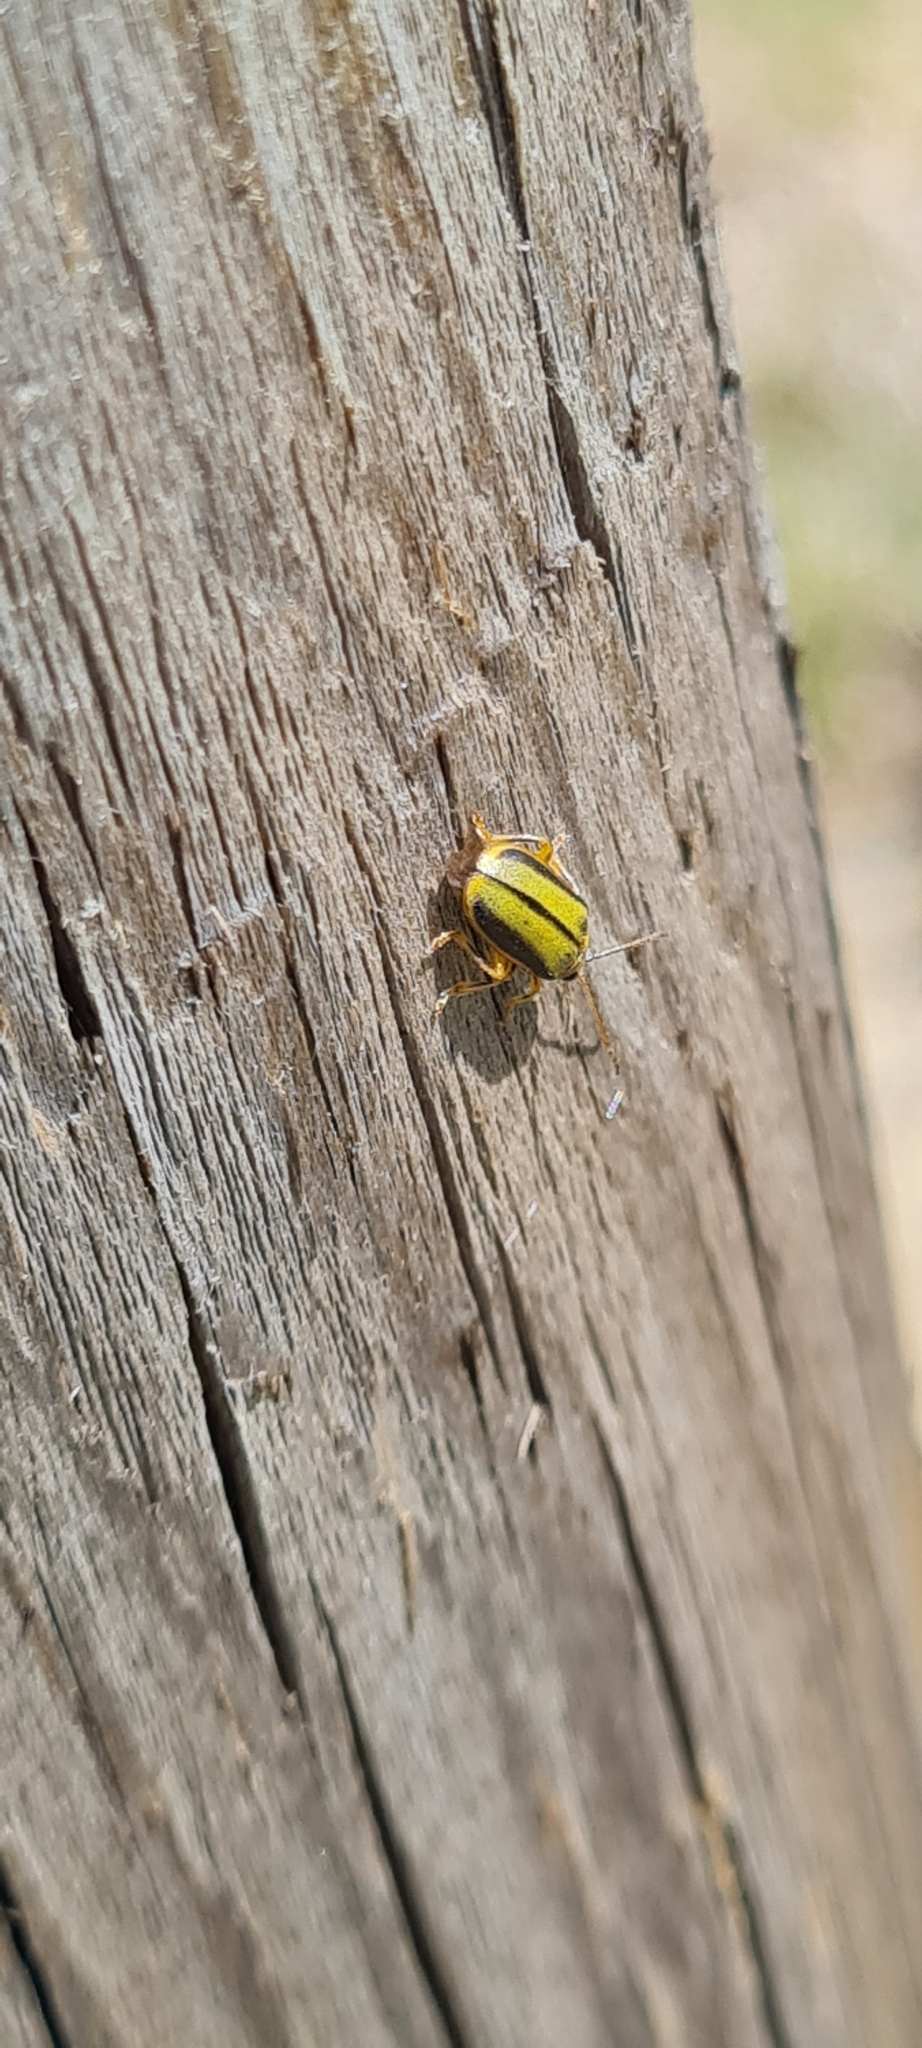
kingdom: Animalia
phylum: Arthropoda
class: Insecta
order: Coleoptera
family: Chrysomelidae
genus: Xanthogaleruca
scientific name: Xanthogaleruca luteola
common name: Elm leaf beetle
